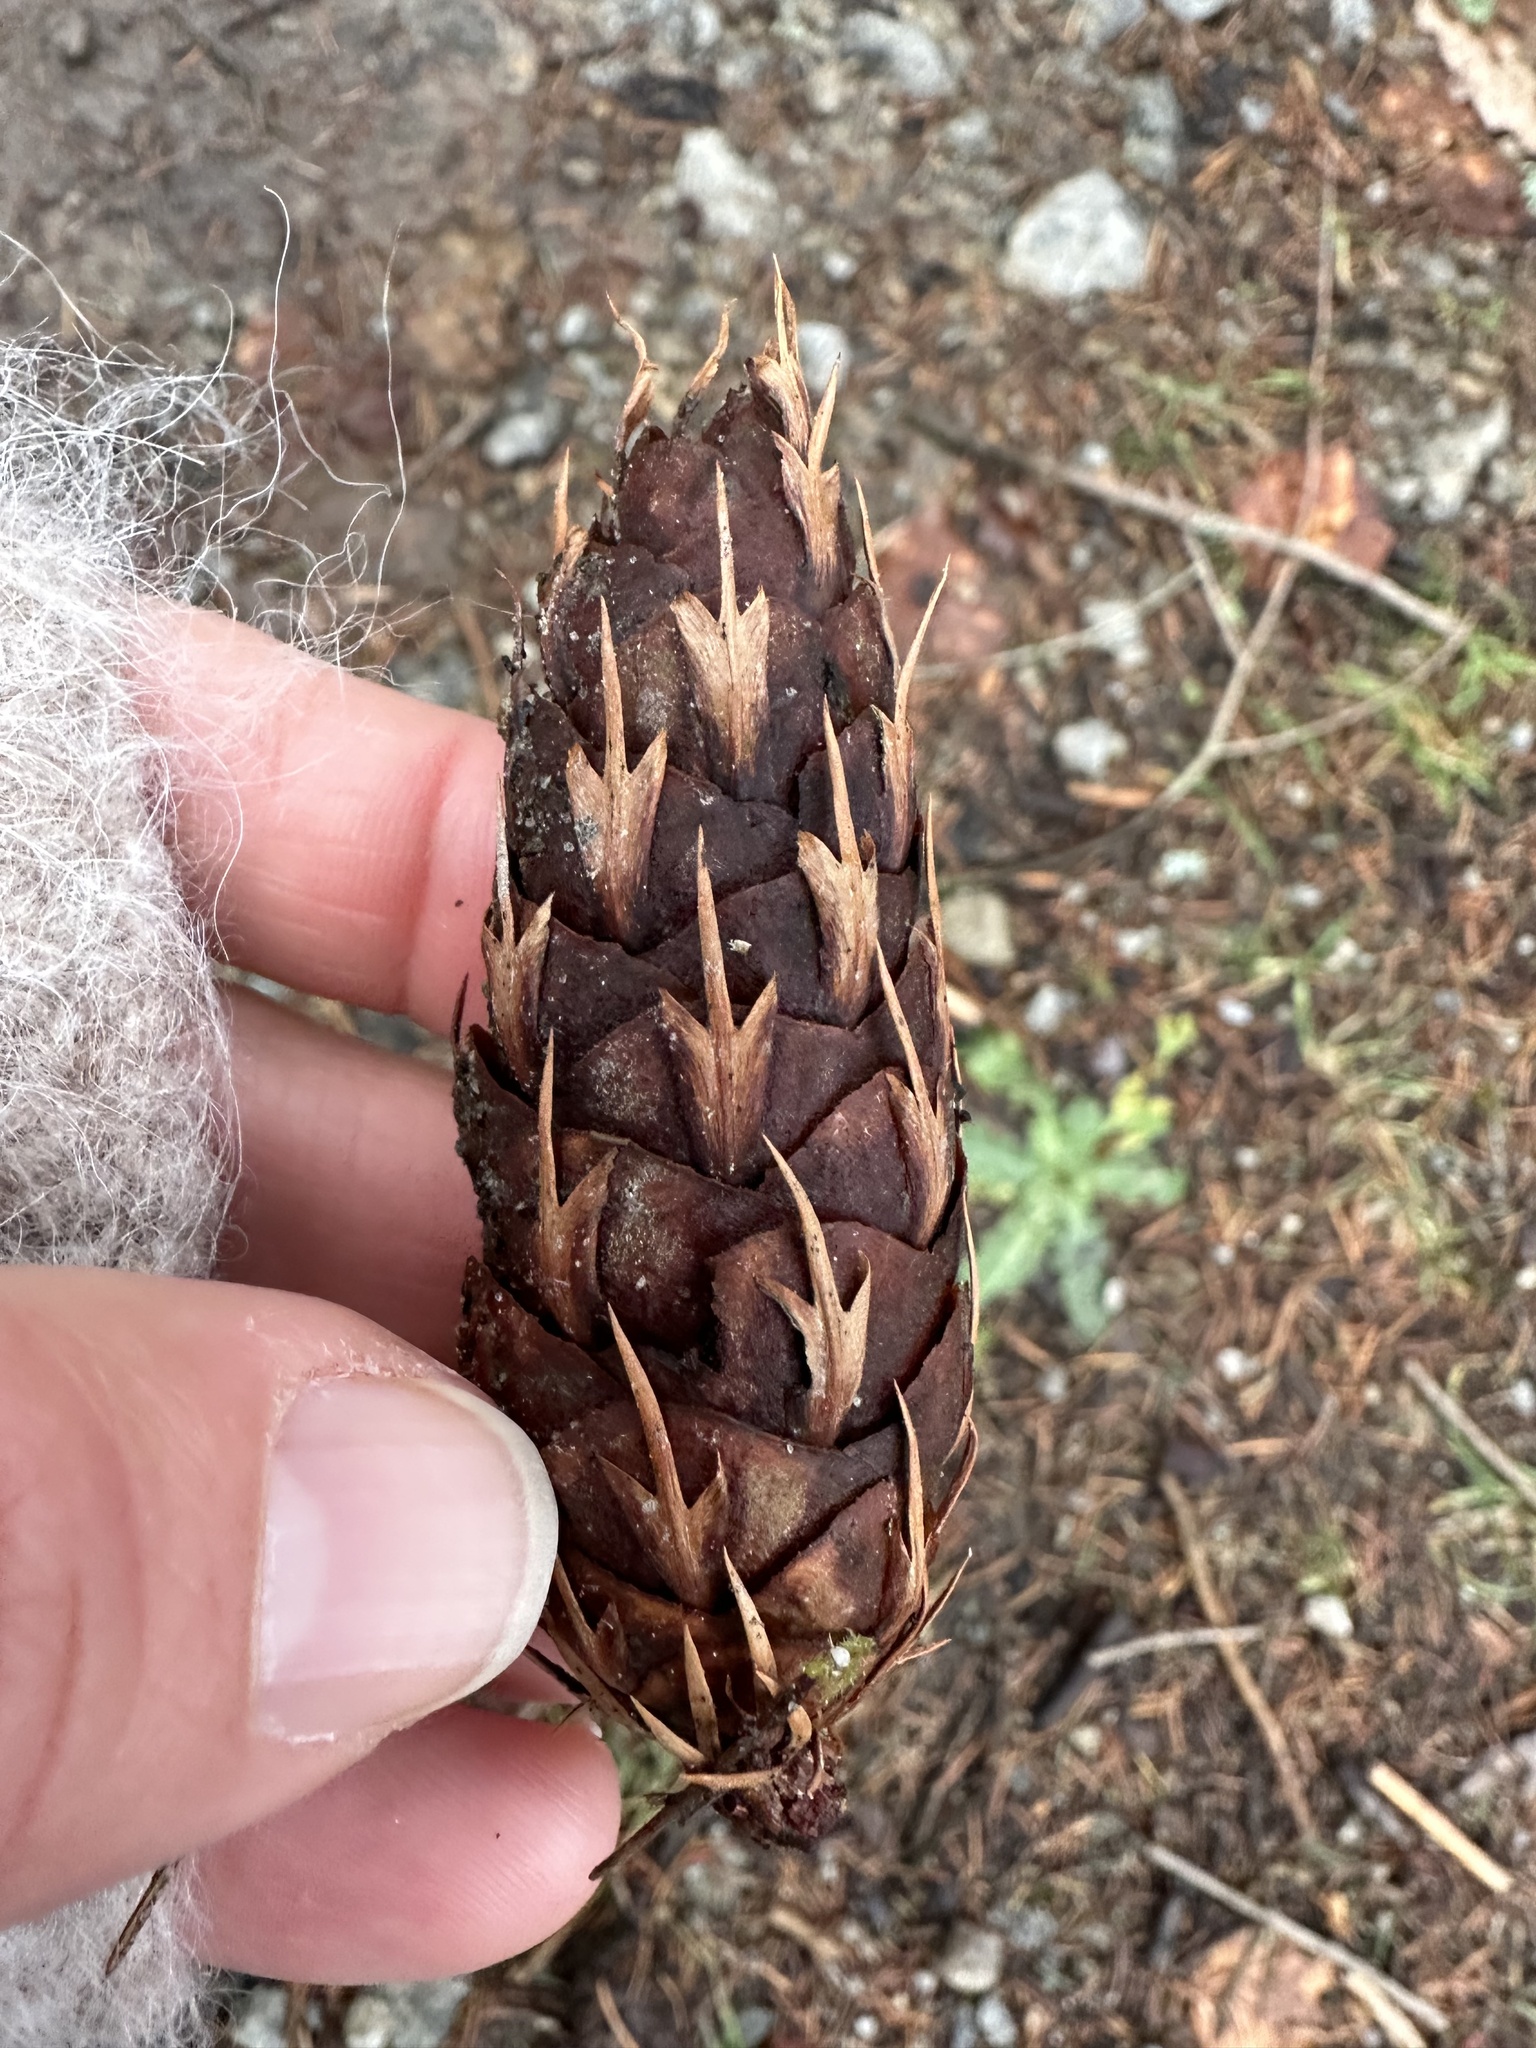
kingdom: Plantae
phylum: Tracheophyta
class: Pinopsida
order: Pinales
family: Pinaceae
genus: Pseudotsuga
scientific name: Pseudotsuga menziesii
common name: Douglas fir
